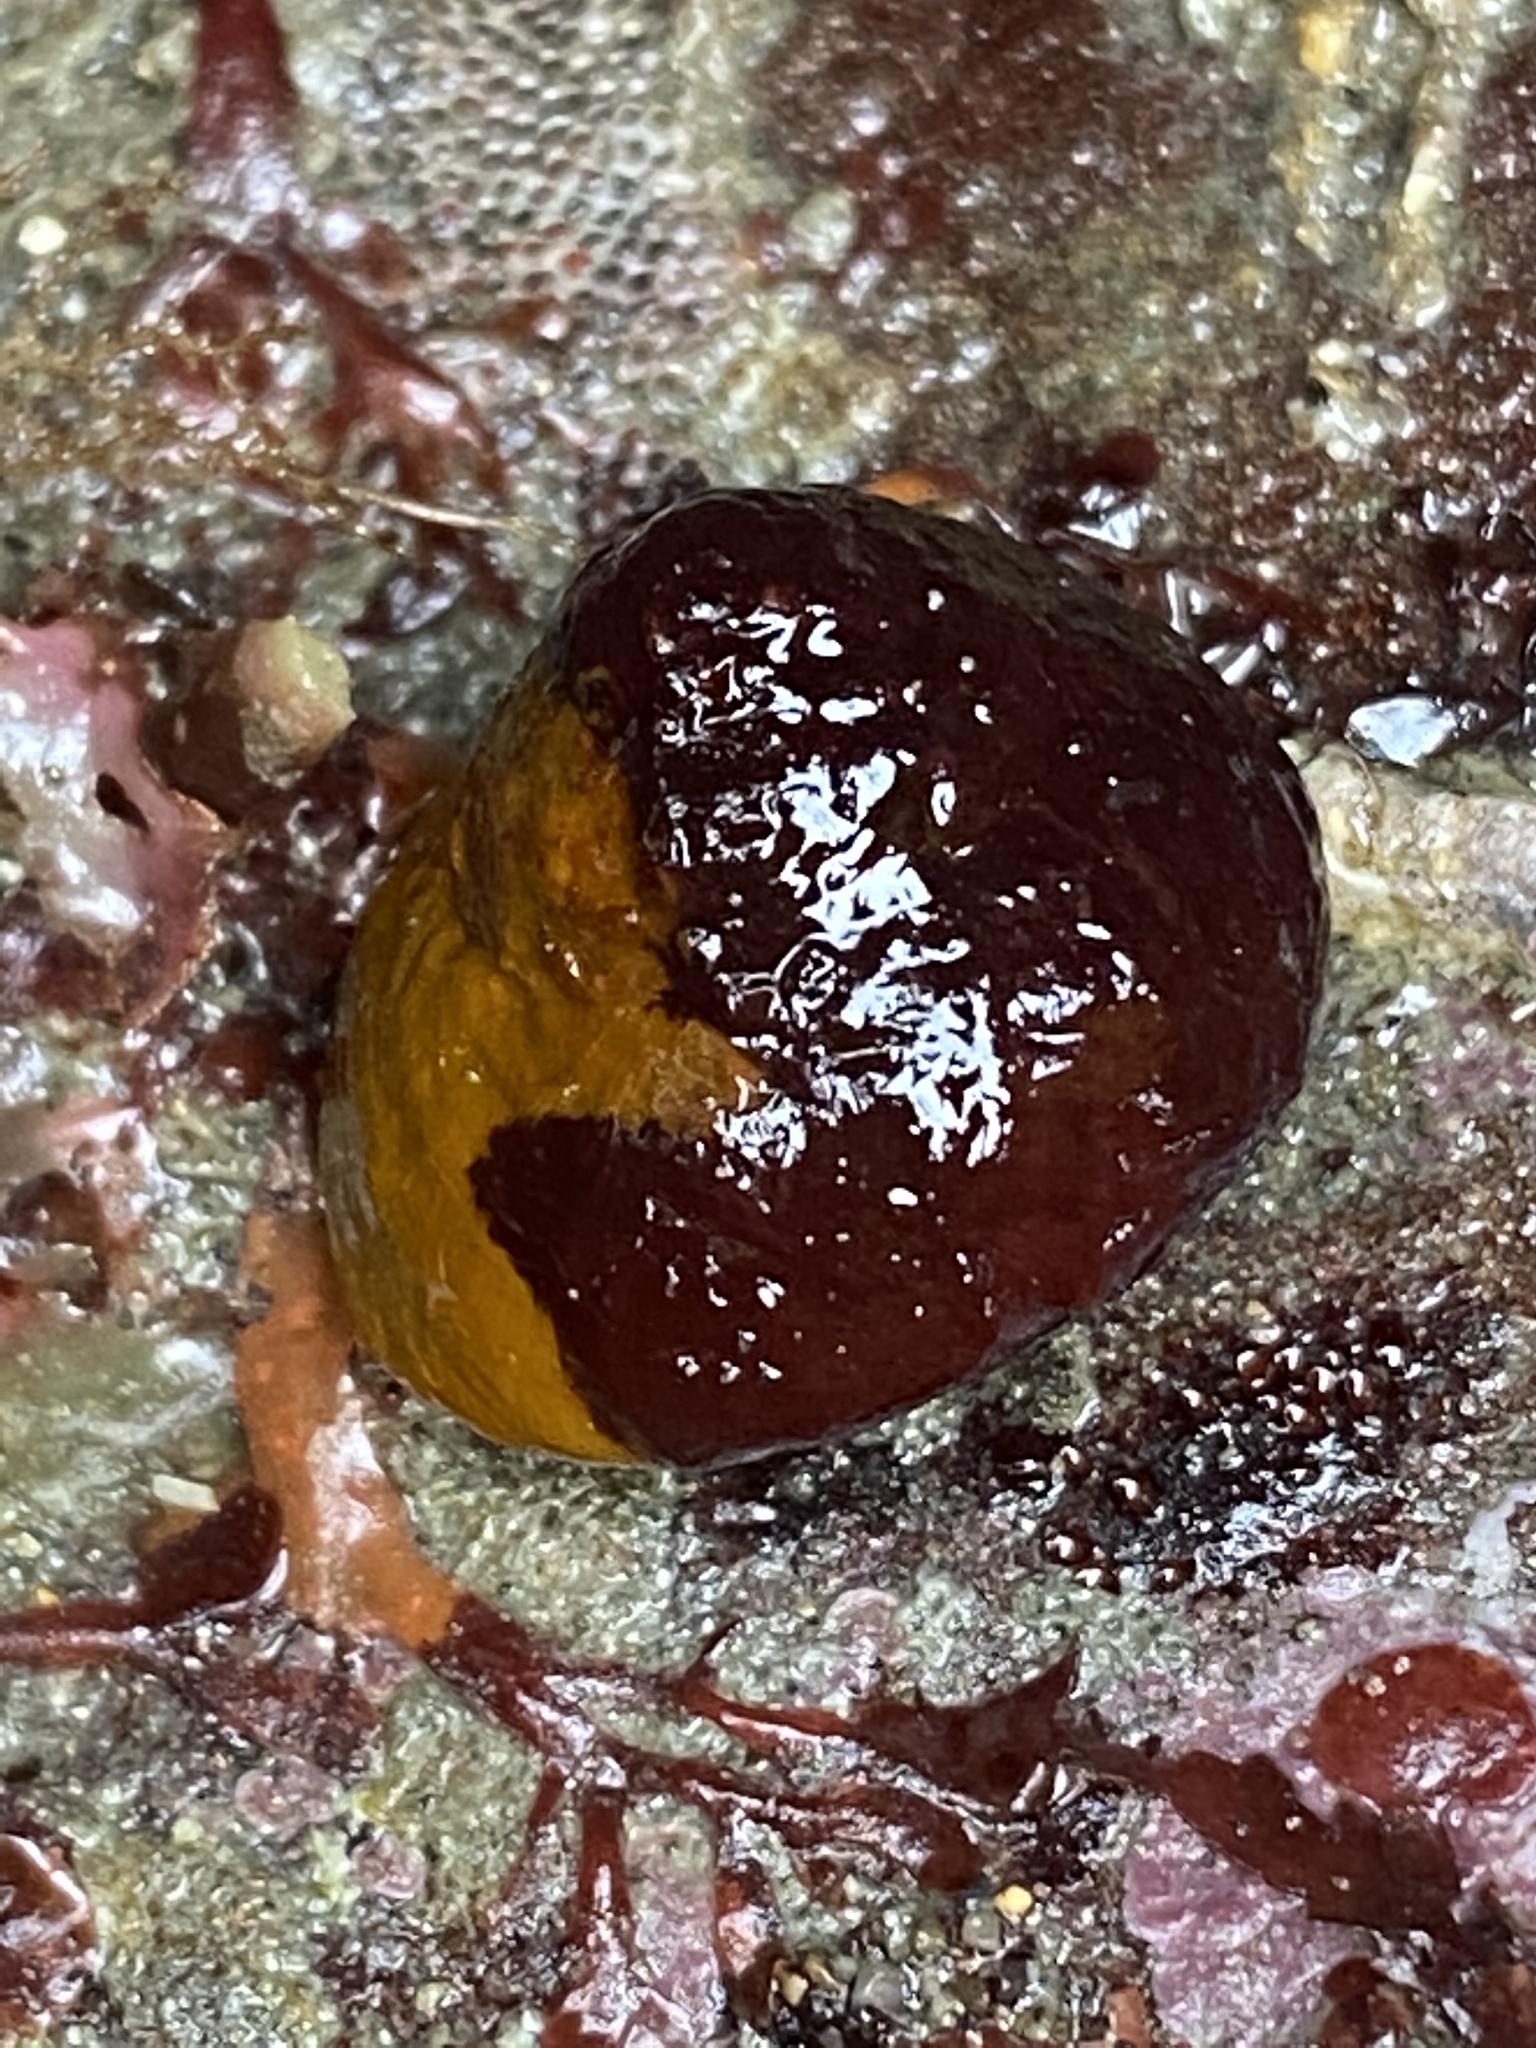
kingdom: Animalia
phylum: Mollusca
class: Gastropoda
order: Trochida
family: Tegulidae
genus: Tegula
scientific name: Tegula brunnea
